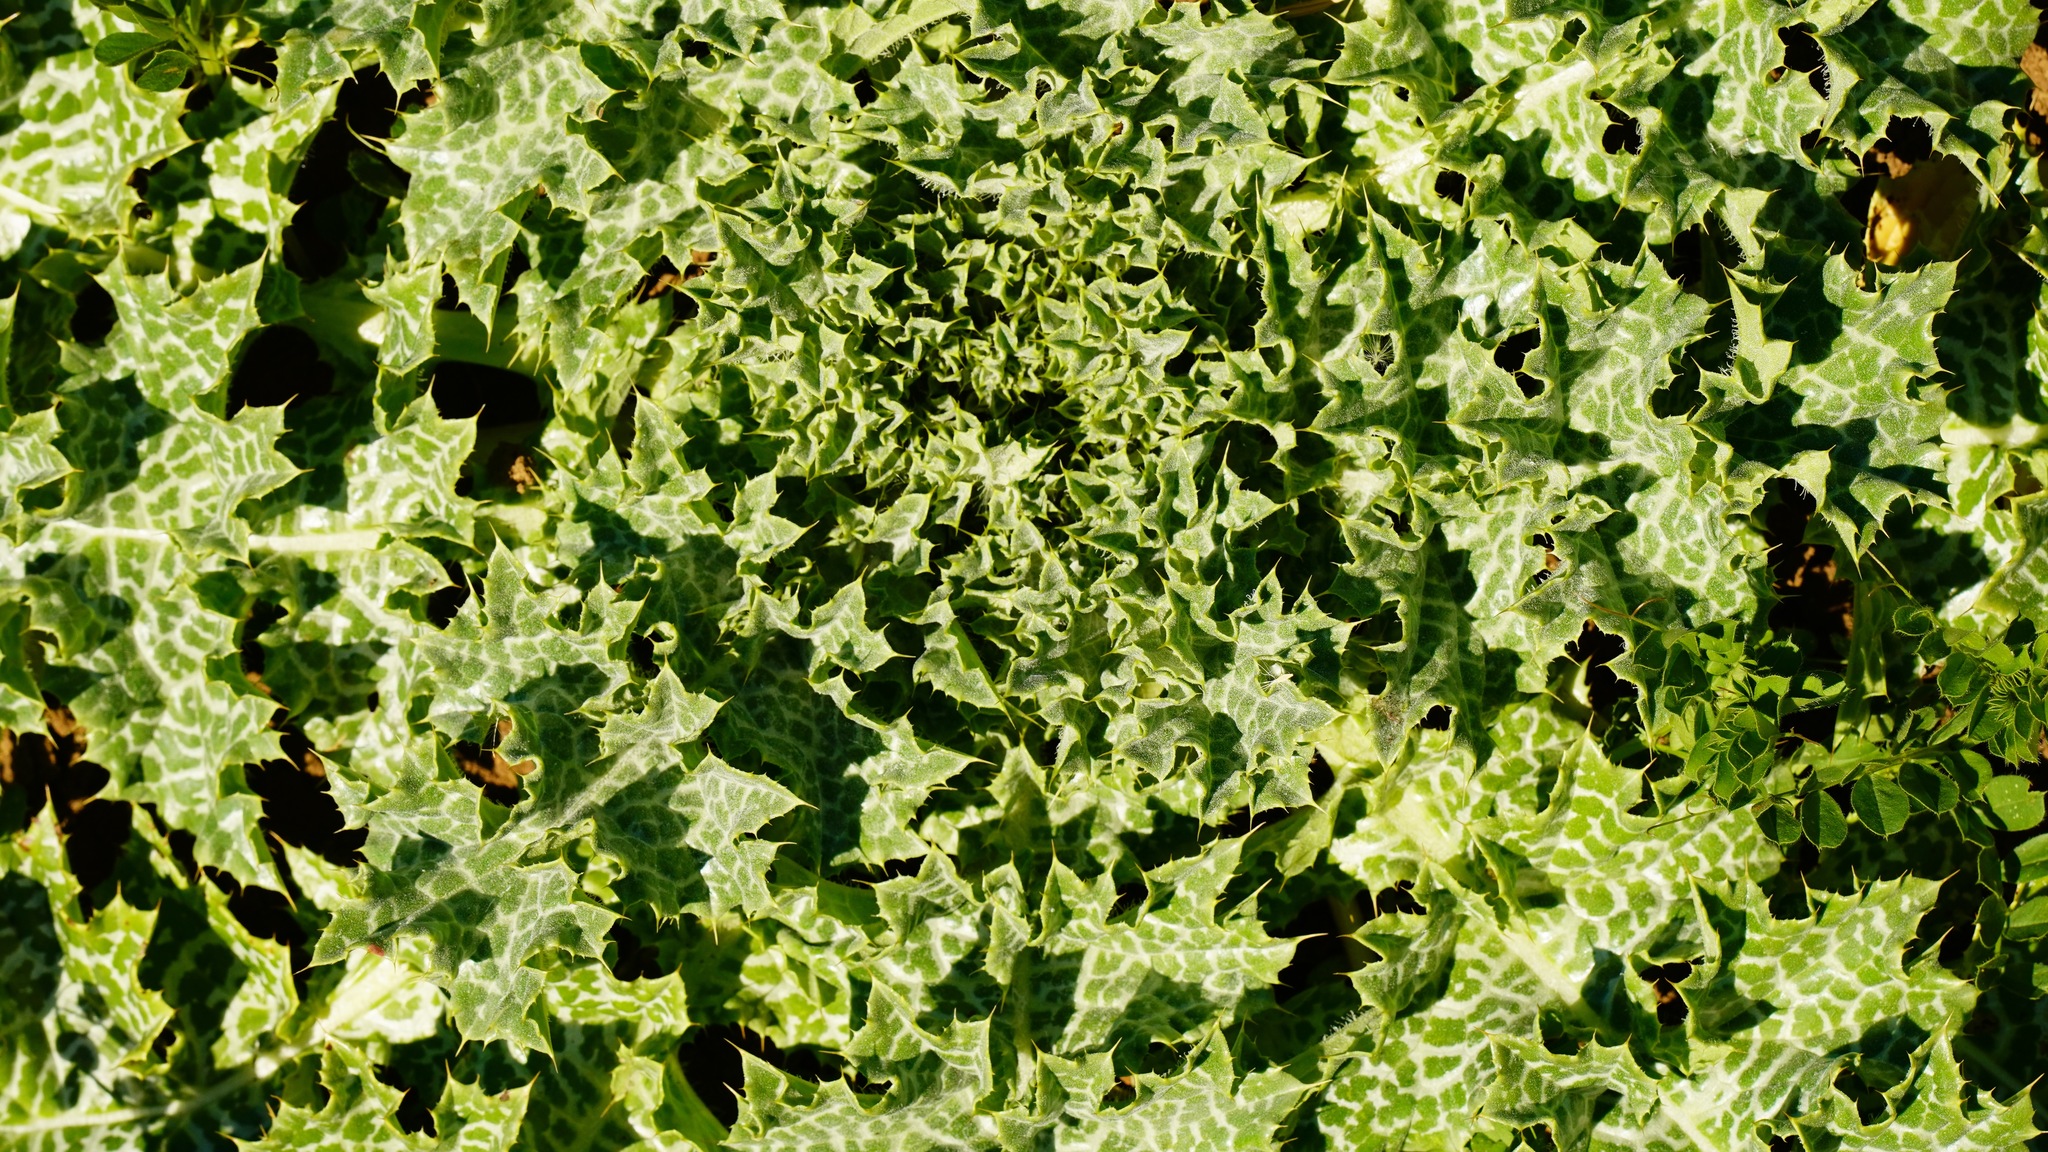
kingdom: Plantae
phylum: Tracheophyta
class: Magnoliopsida
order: Asterales
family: Asteraceae
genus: Silybum
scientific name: Silybum marianum
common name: Milk thistle
